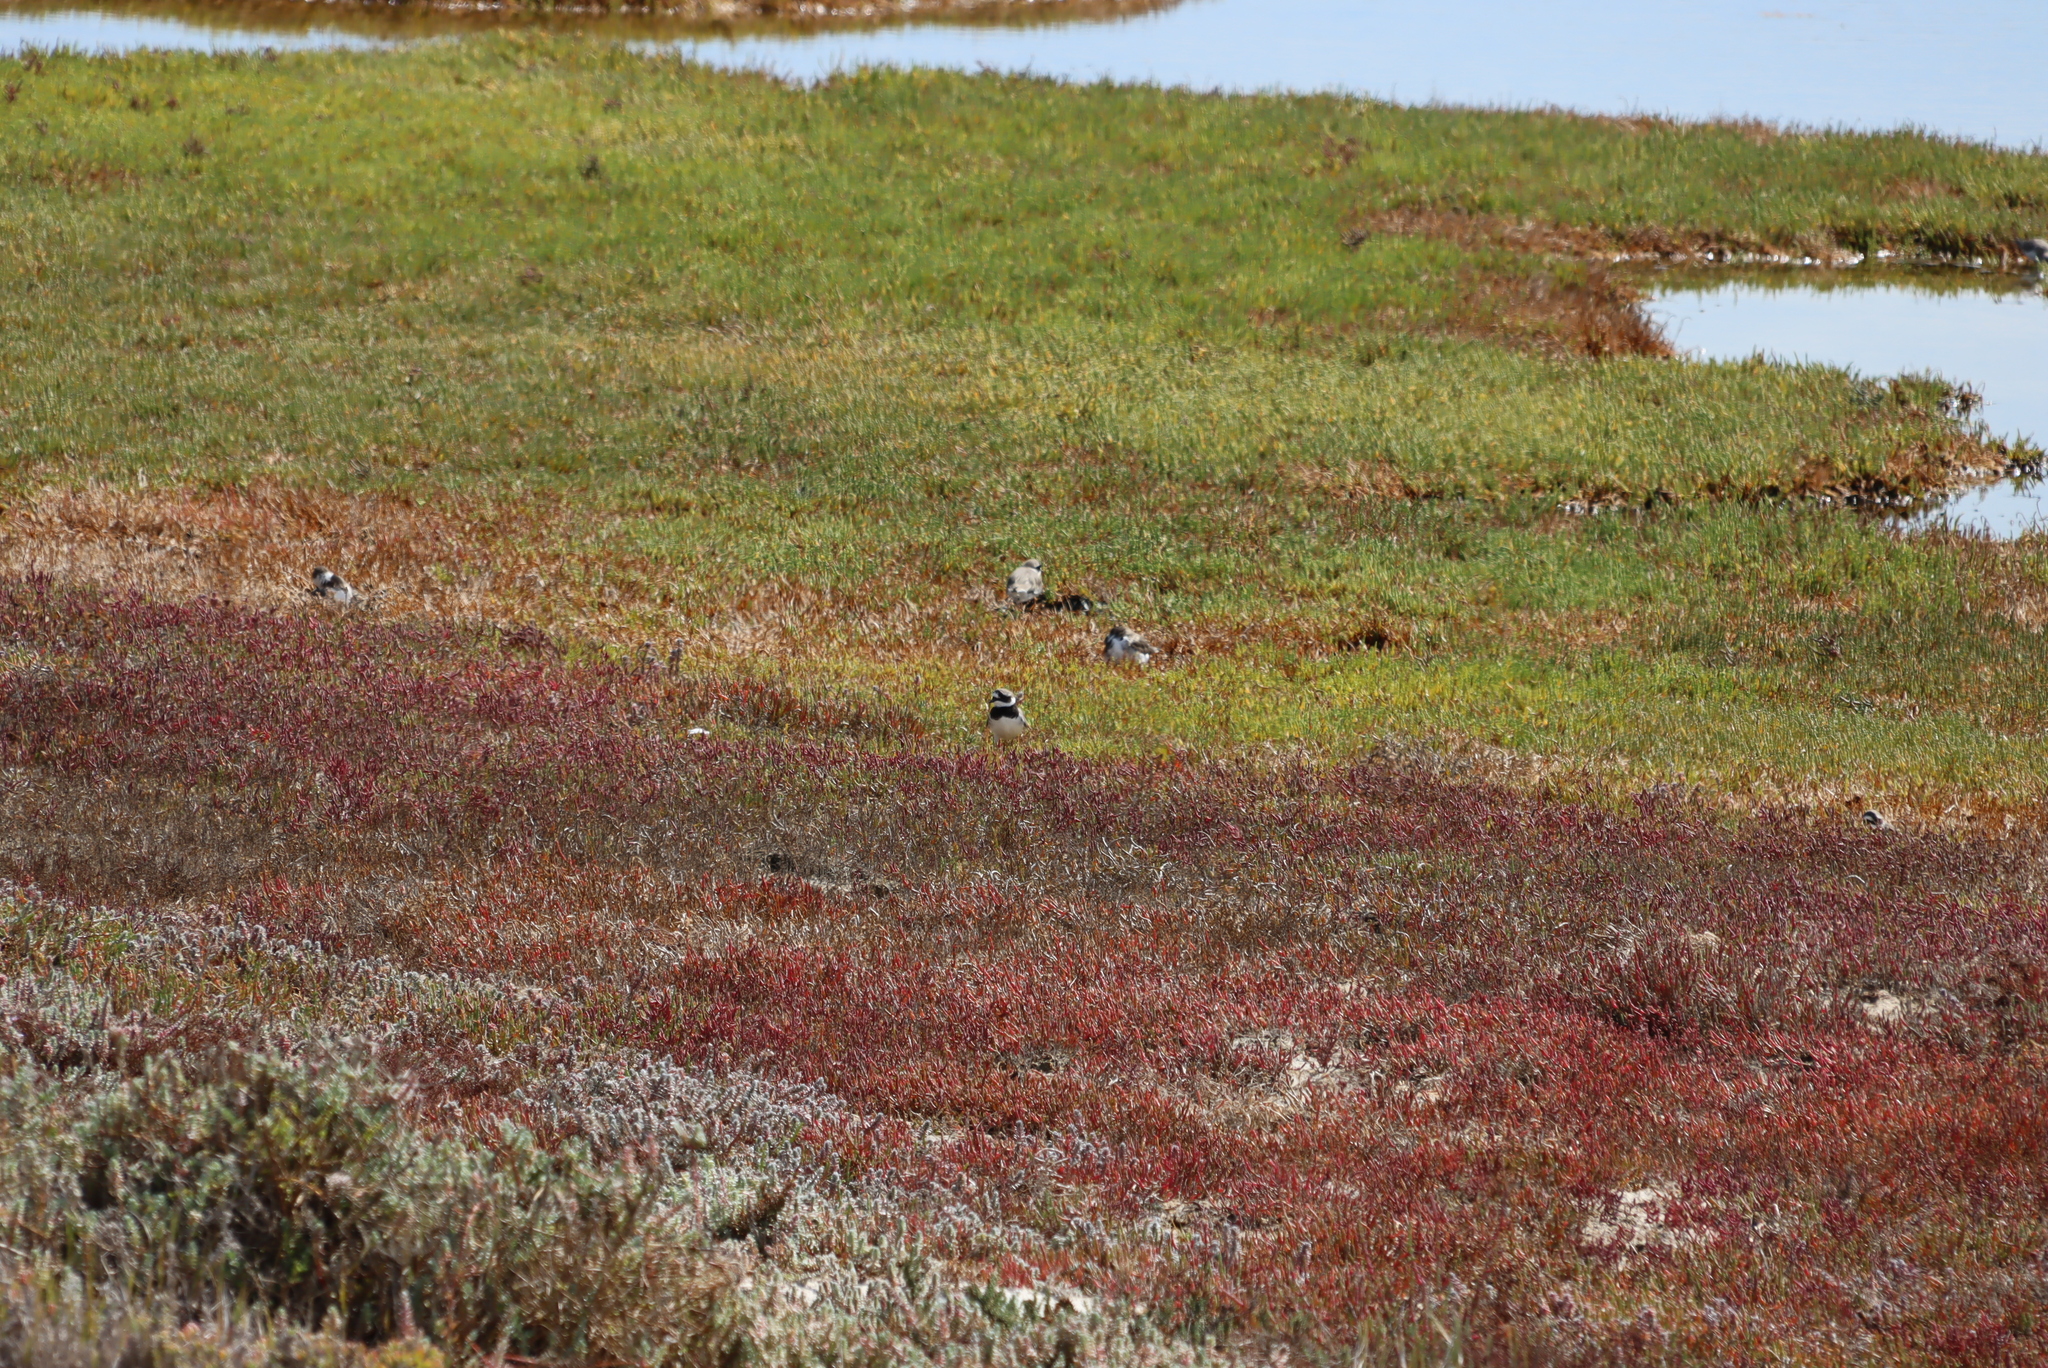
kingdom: Animalia
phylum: Chordata
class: Aves
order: Charadriiformes
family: Charadriidae
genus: Charadrius
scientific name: Charadrius hiaticula
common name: Common ringed plover
